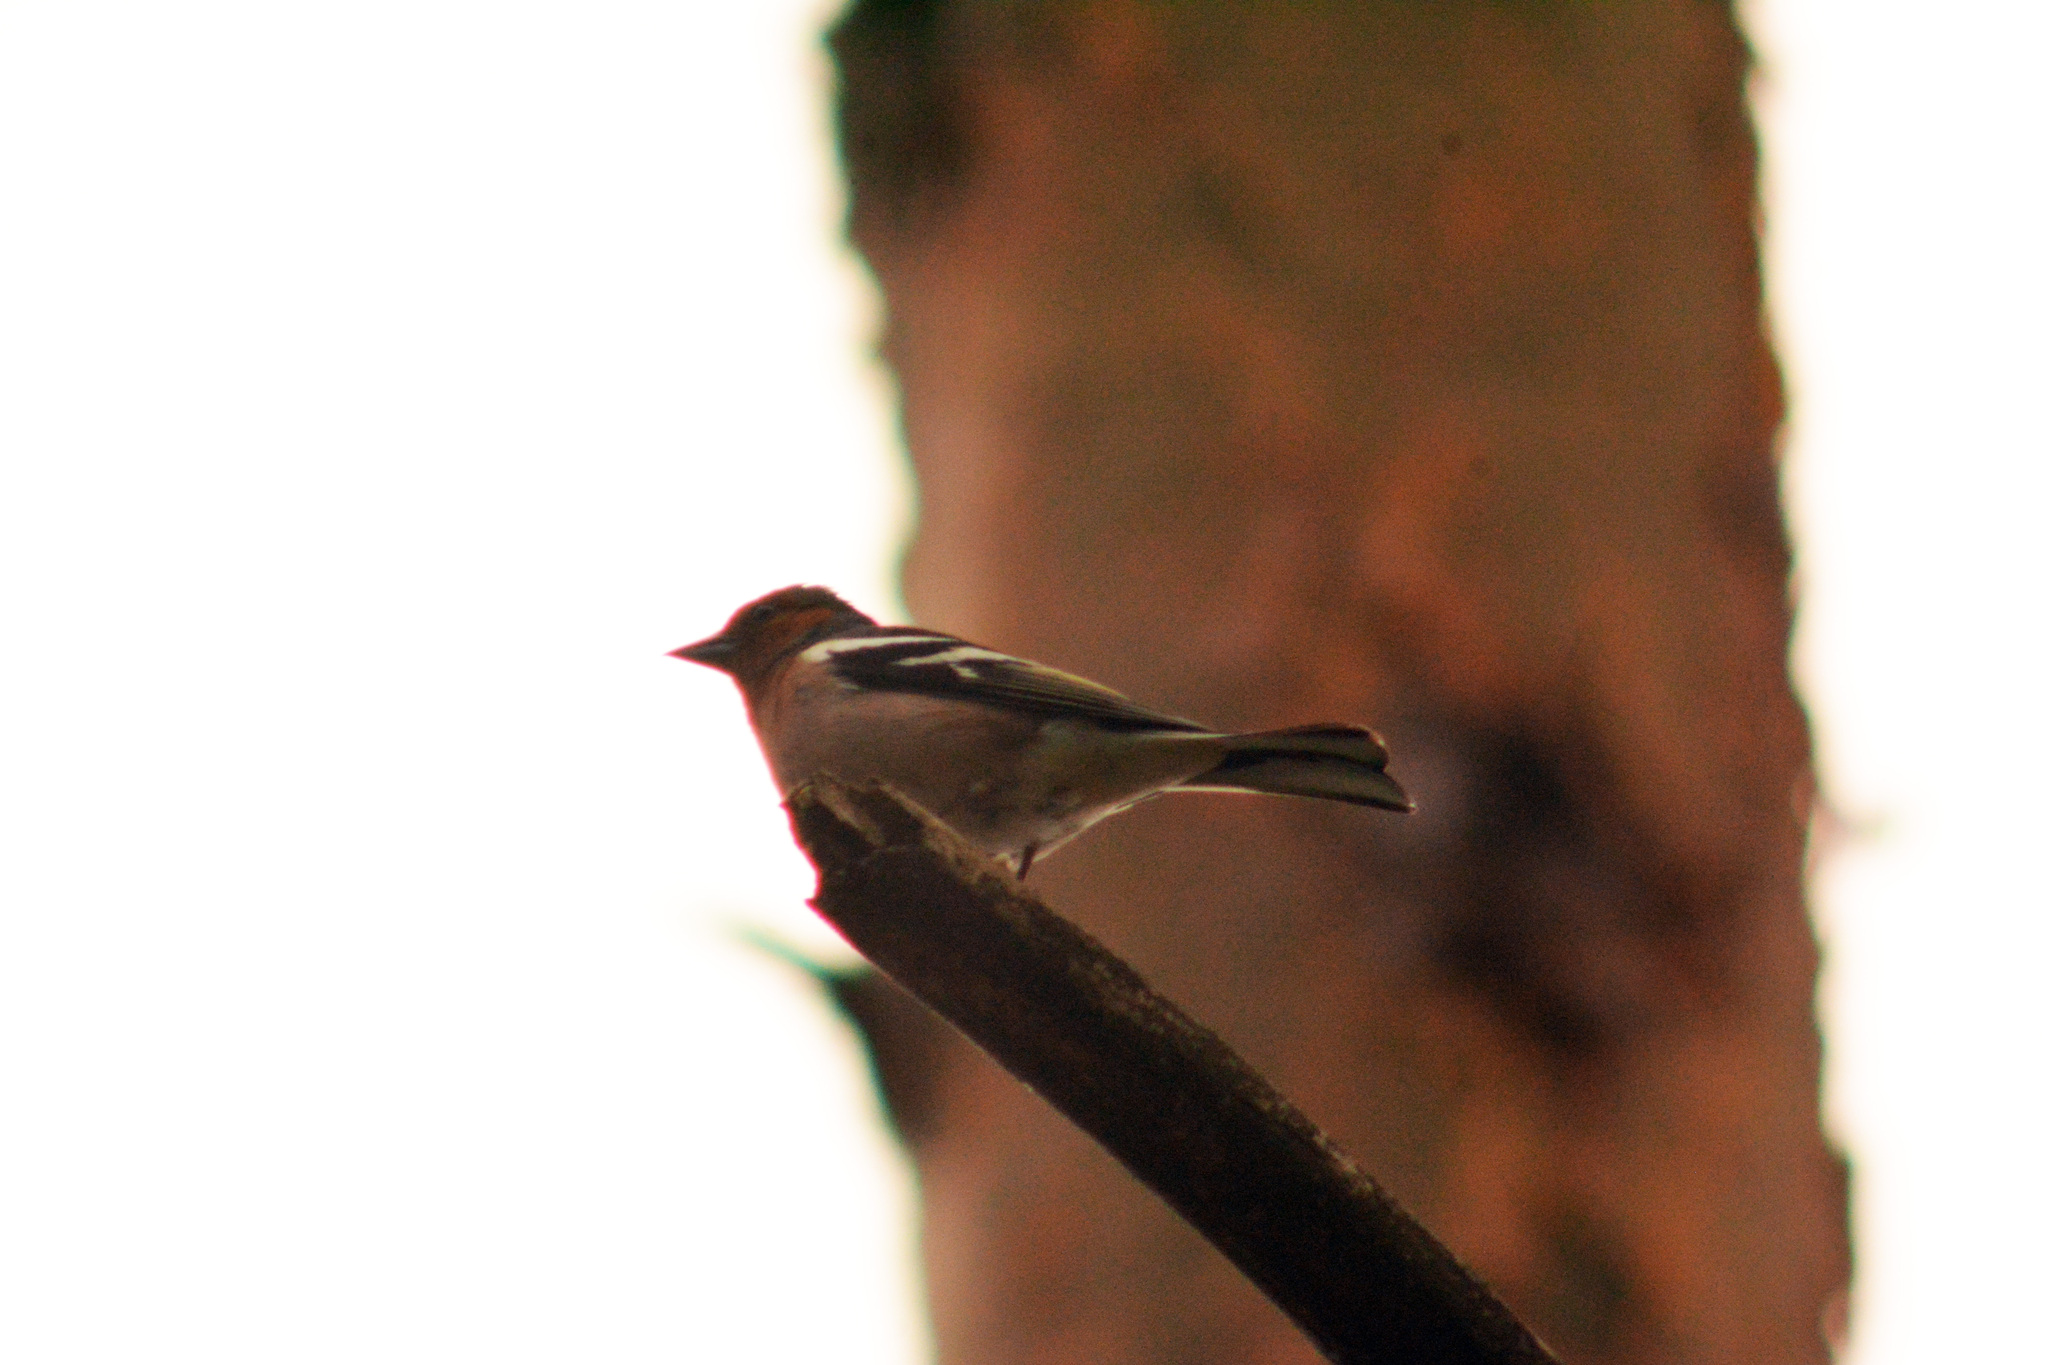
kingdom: Animalia
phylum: Chordata
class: Aves
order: Passeriformes
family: Fringillidae
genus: Fringilla
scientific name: Fringilla coelebs
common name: Common chaffinch
